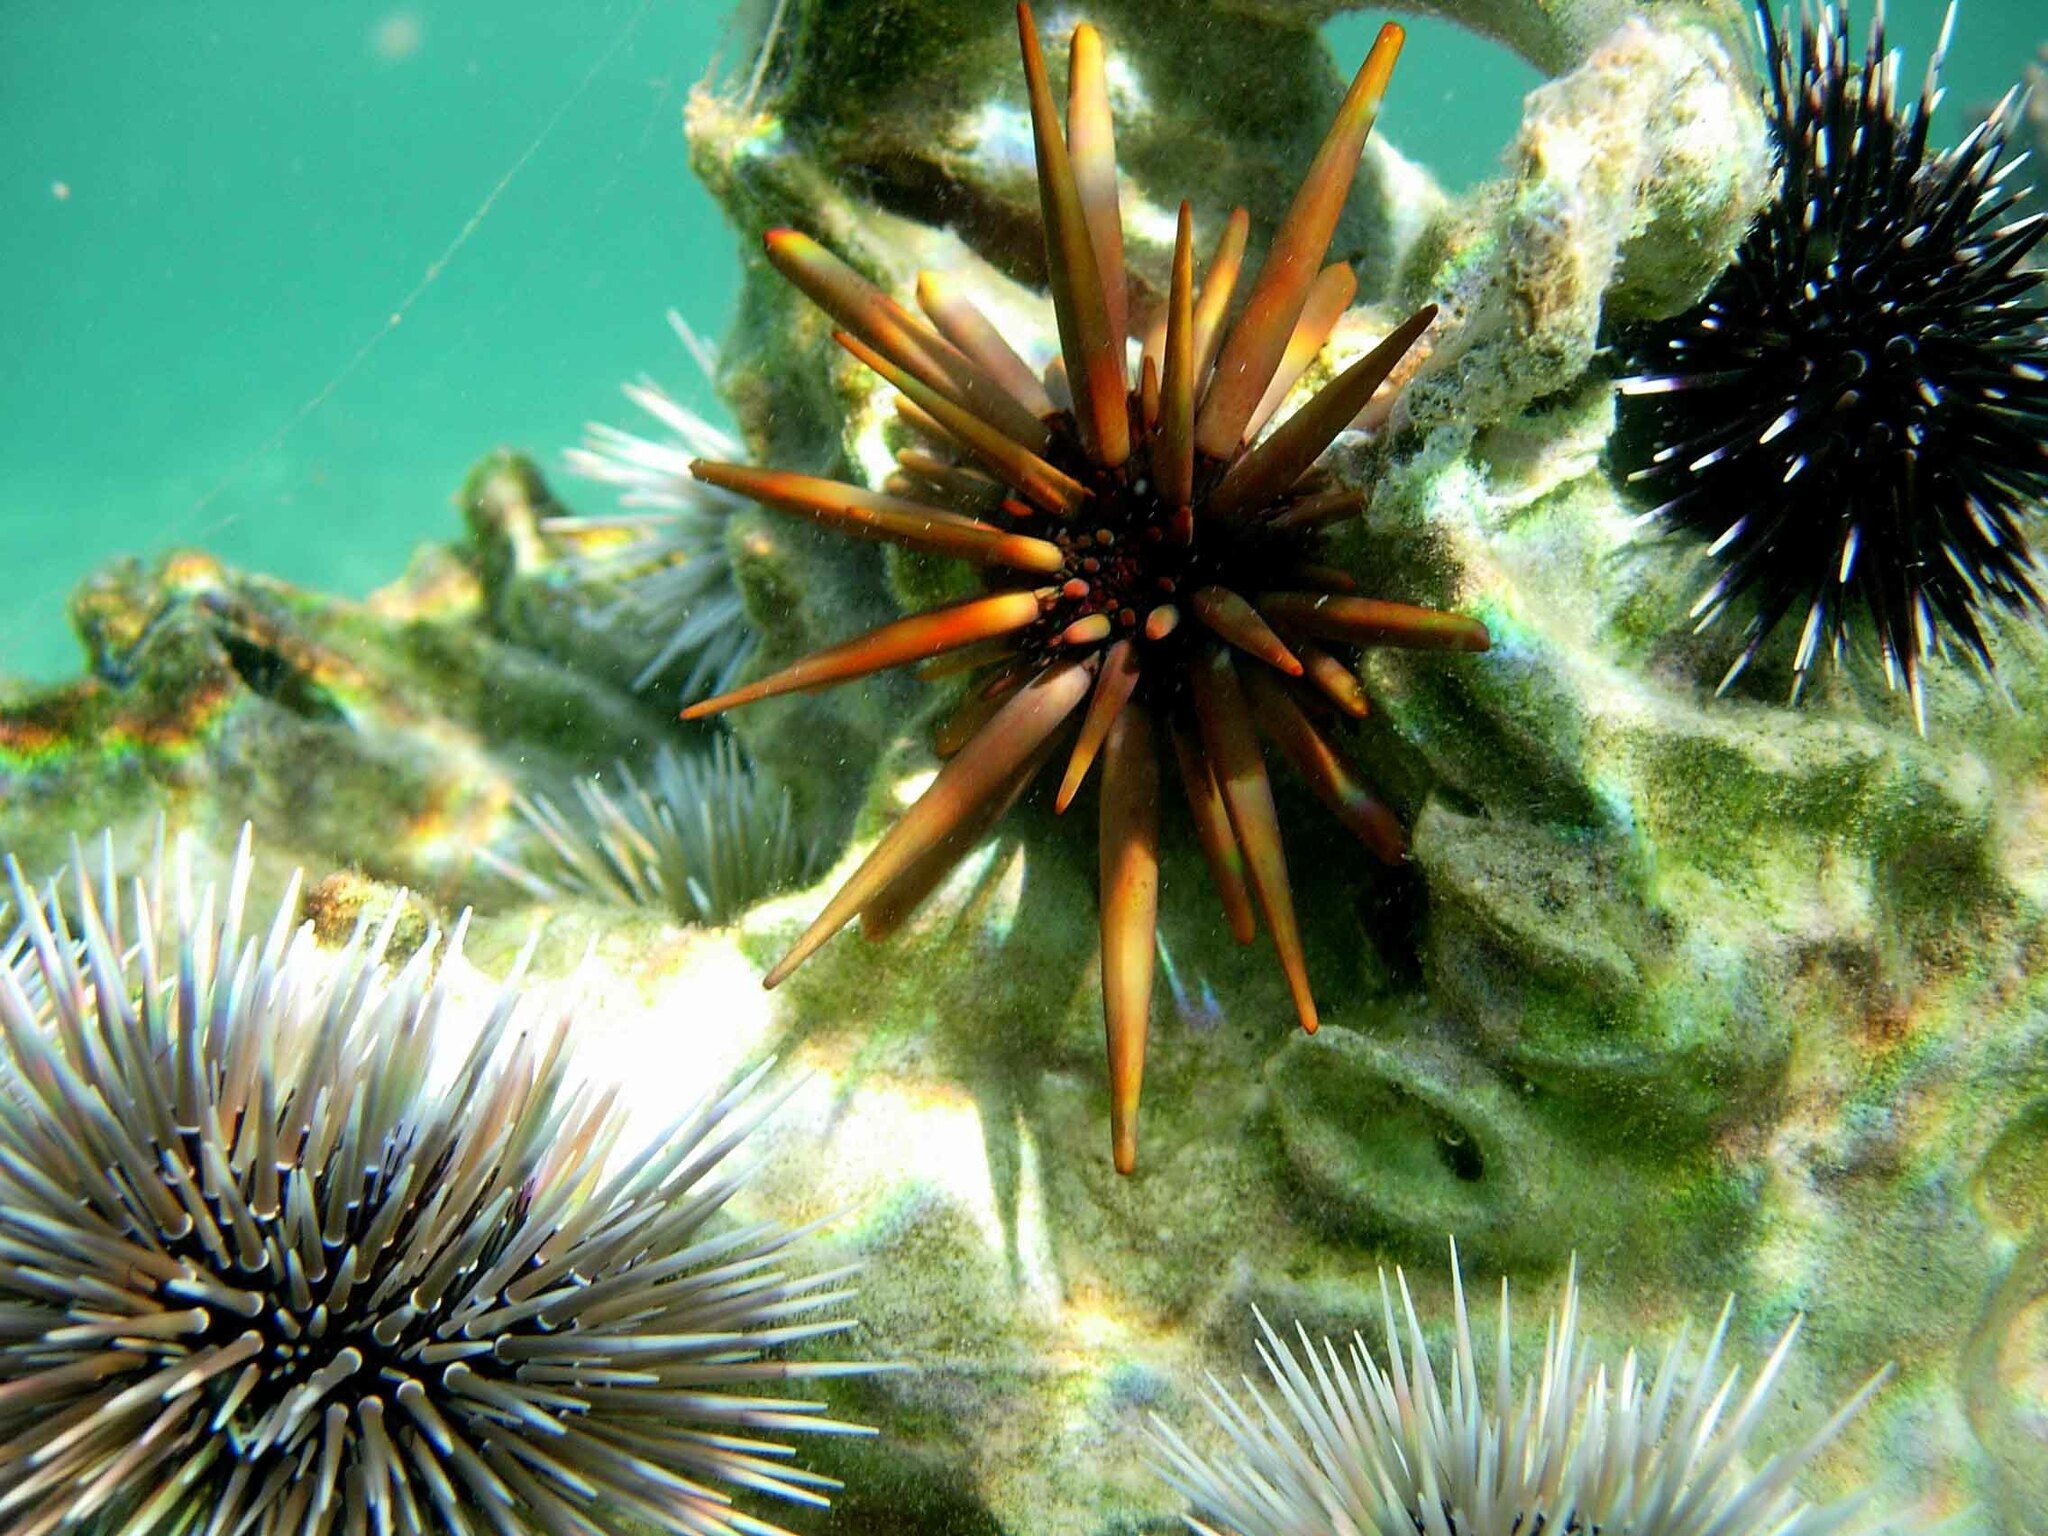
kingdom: Animalia
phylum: Echinodermata
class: Echinoidea
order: Camarodonta
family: Echinometridae
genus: Heterocentrotus
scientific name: Heterocentrotus mamillatus
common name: Slate pencil urchin
